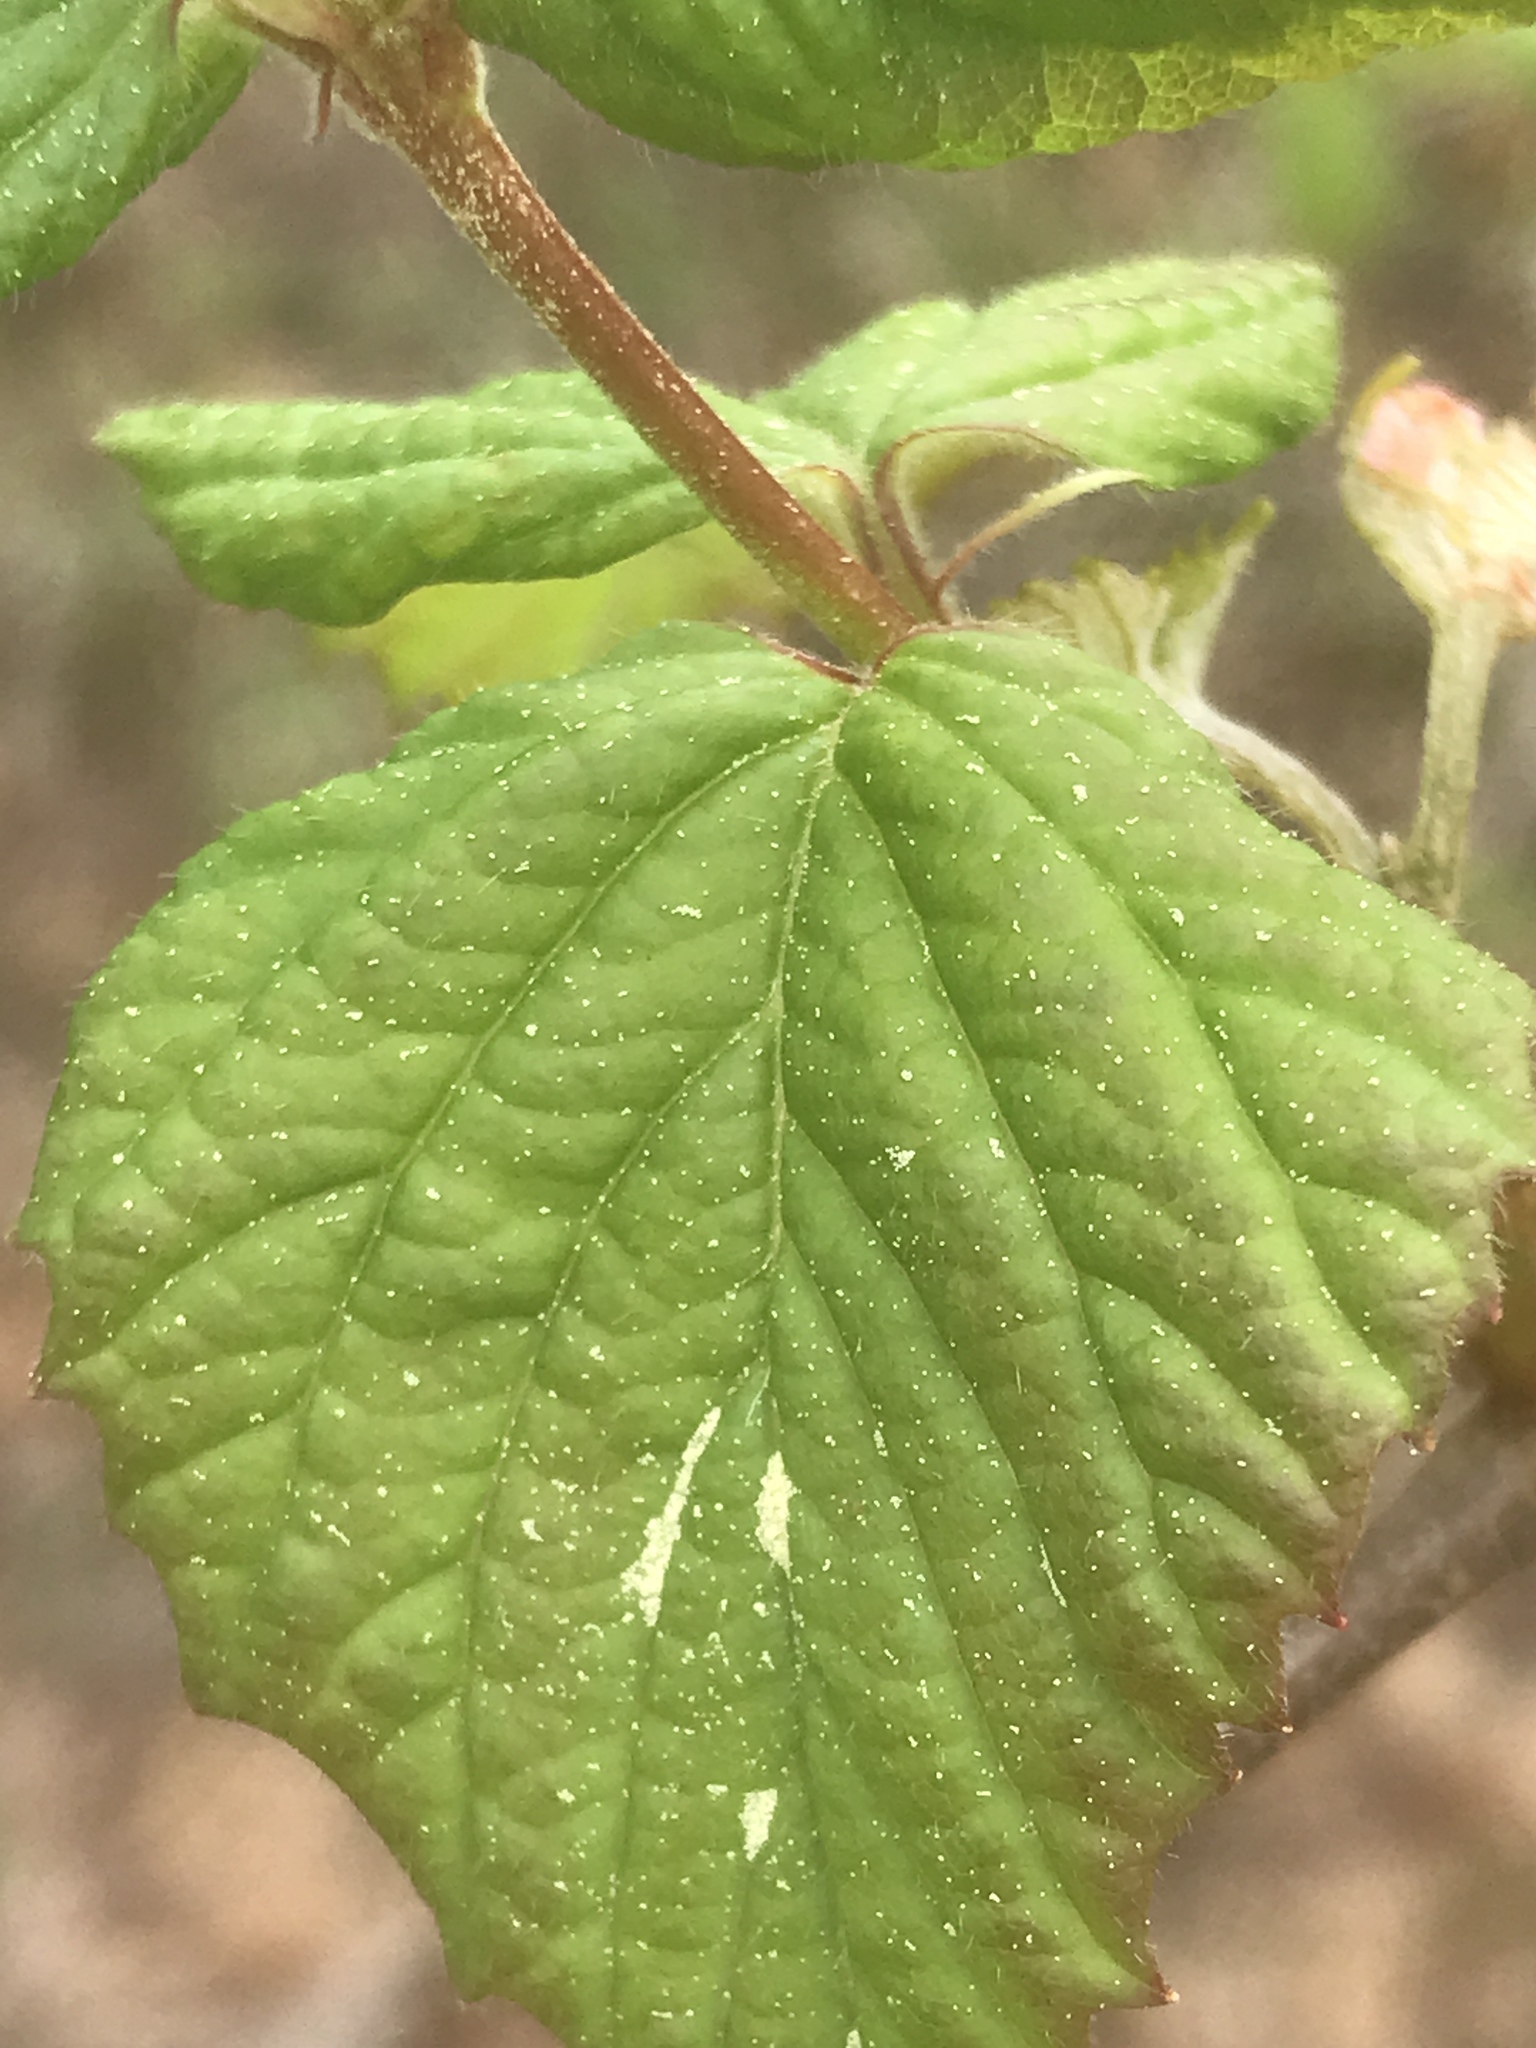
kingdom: Plantae
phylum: Tracheophyta
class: Magnoliopsida
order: Dipsacales
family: Viburnaceae
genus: Viburnum
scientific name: Viburnum rafinesqueanum
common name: Downy arrow-wood
